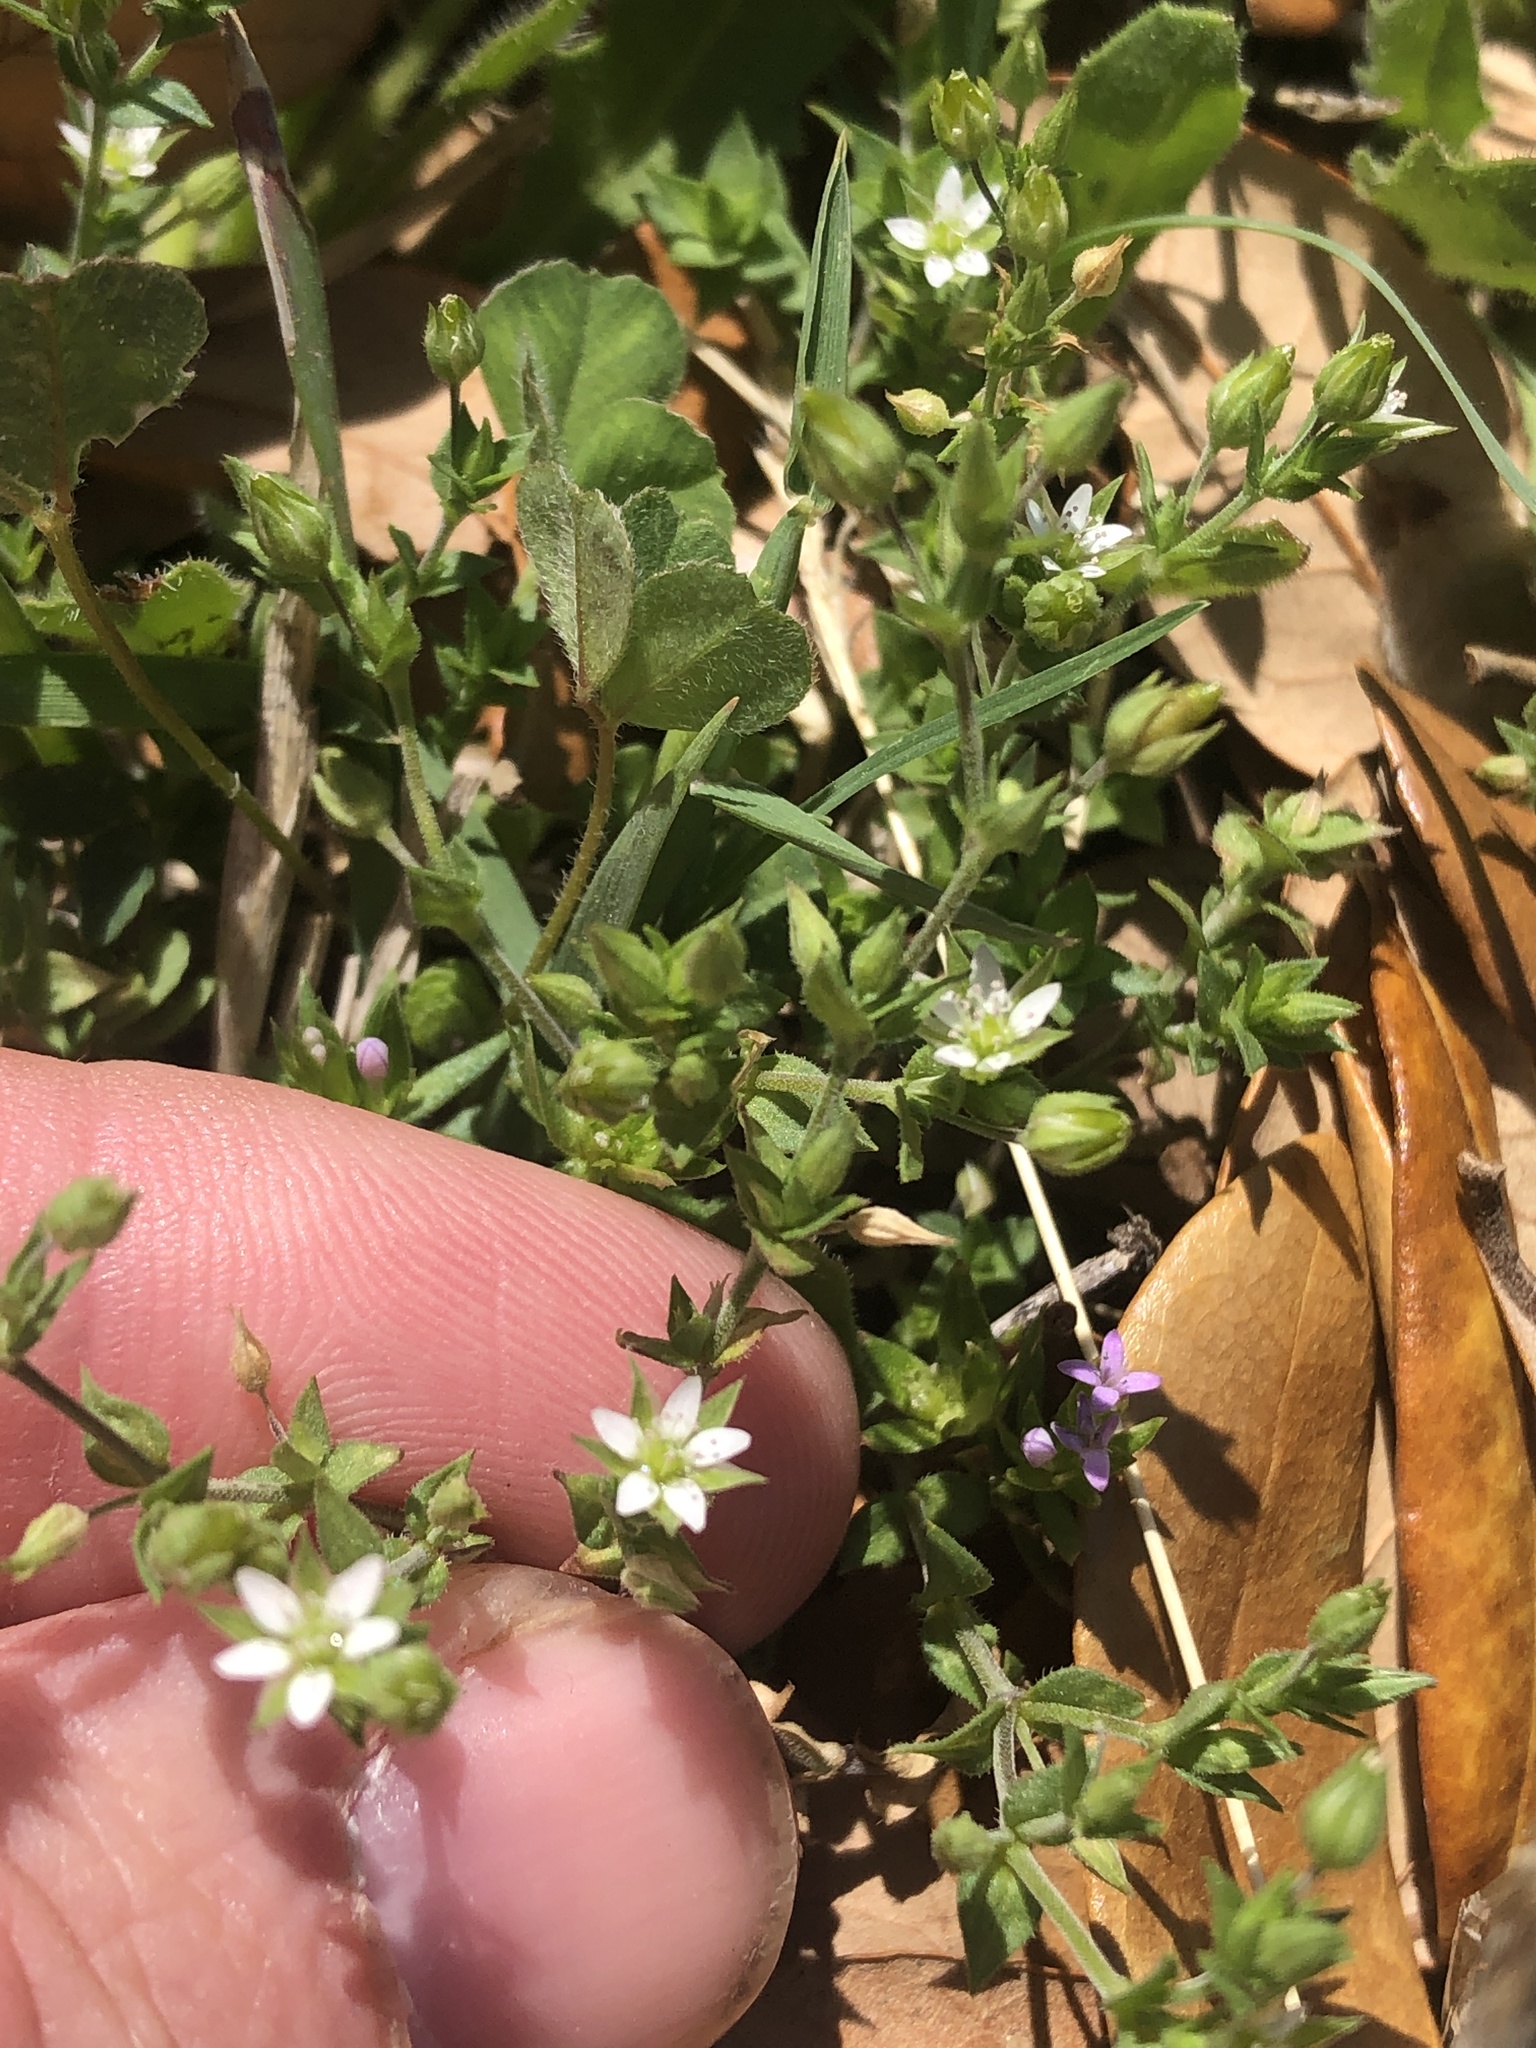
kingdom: Plantae
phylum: Tracheophyta
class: Magnoliopsida
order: Caryophyllales
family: Caryophyllaceae
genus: Arenaria
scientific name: Arenaria serpyllifolia
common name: Thyme-leaved sandwort
